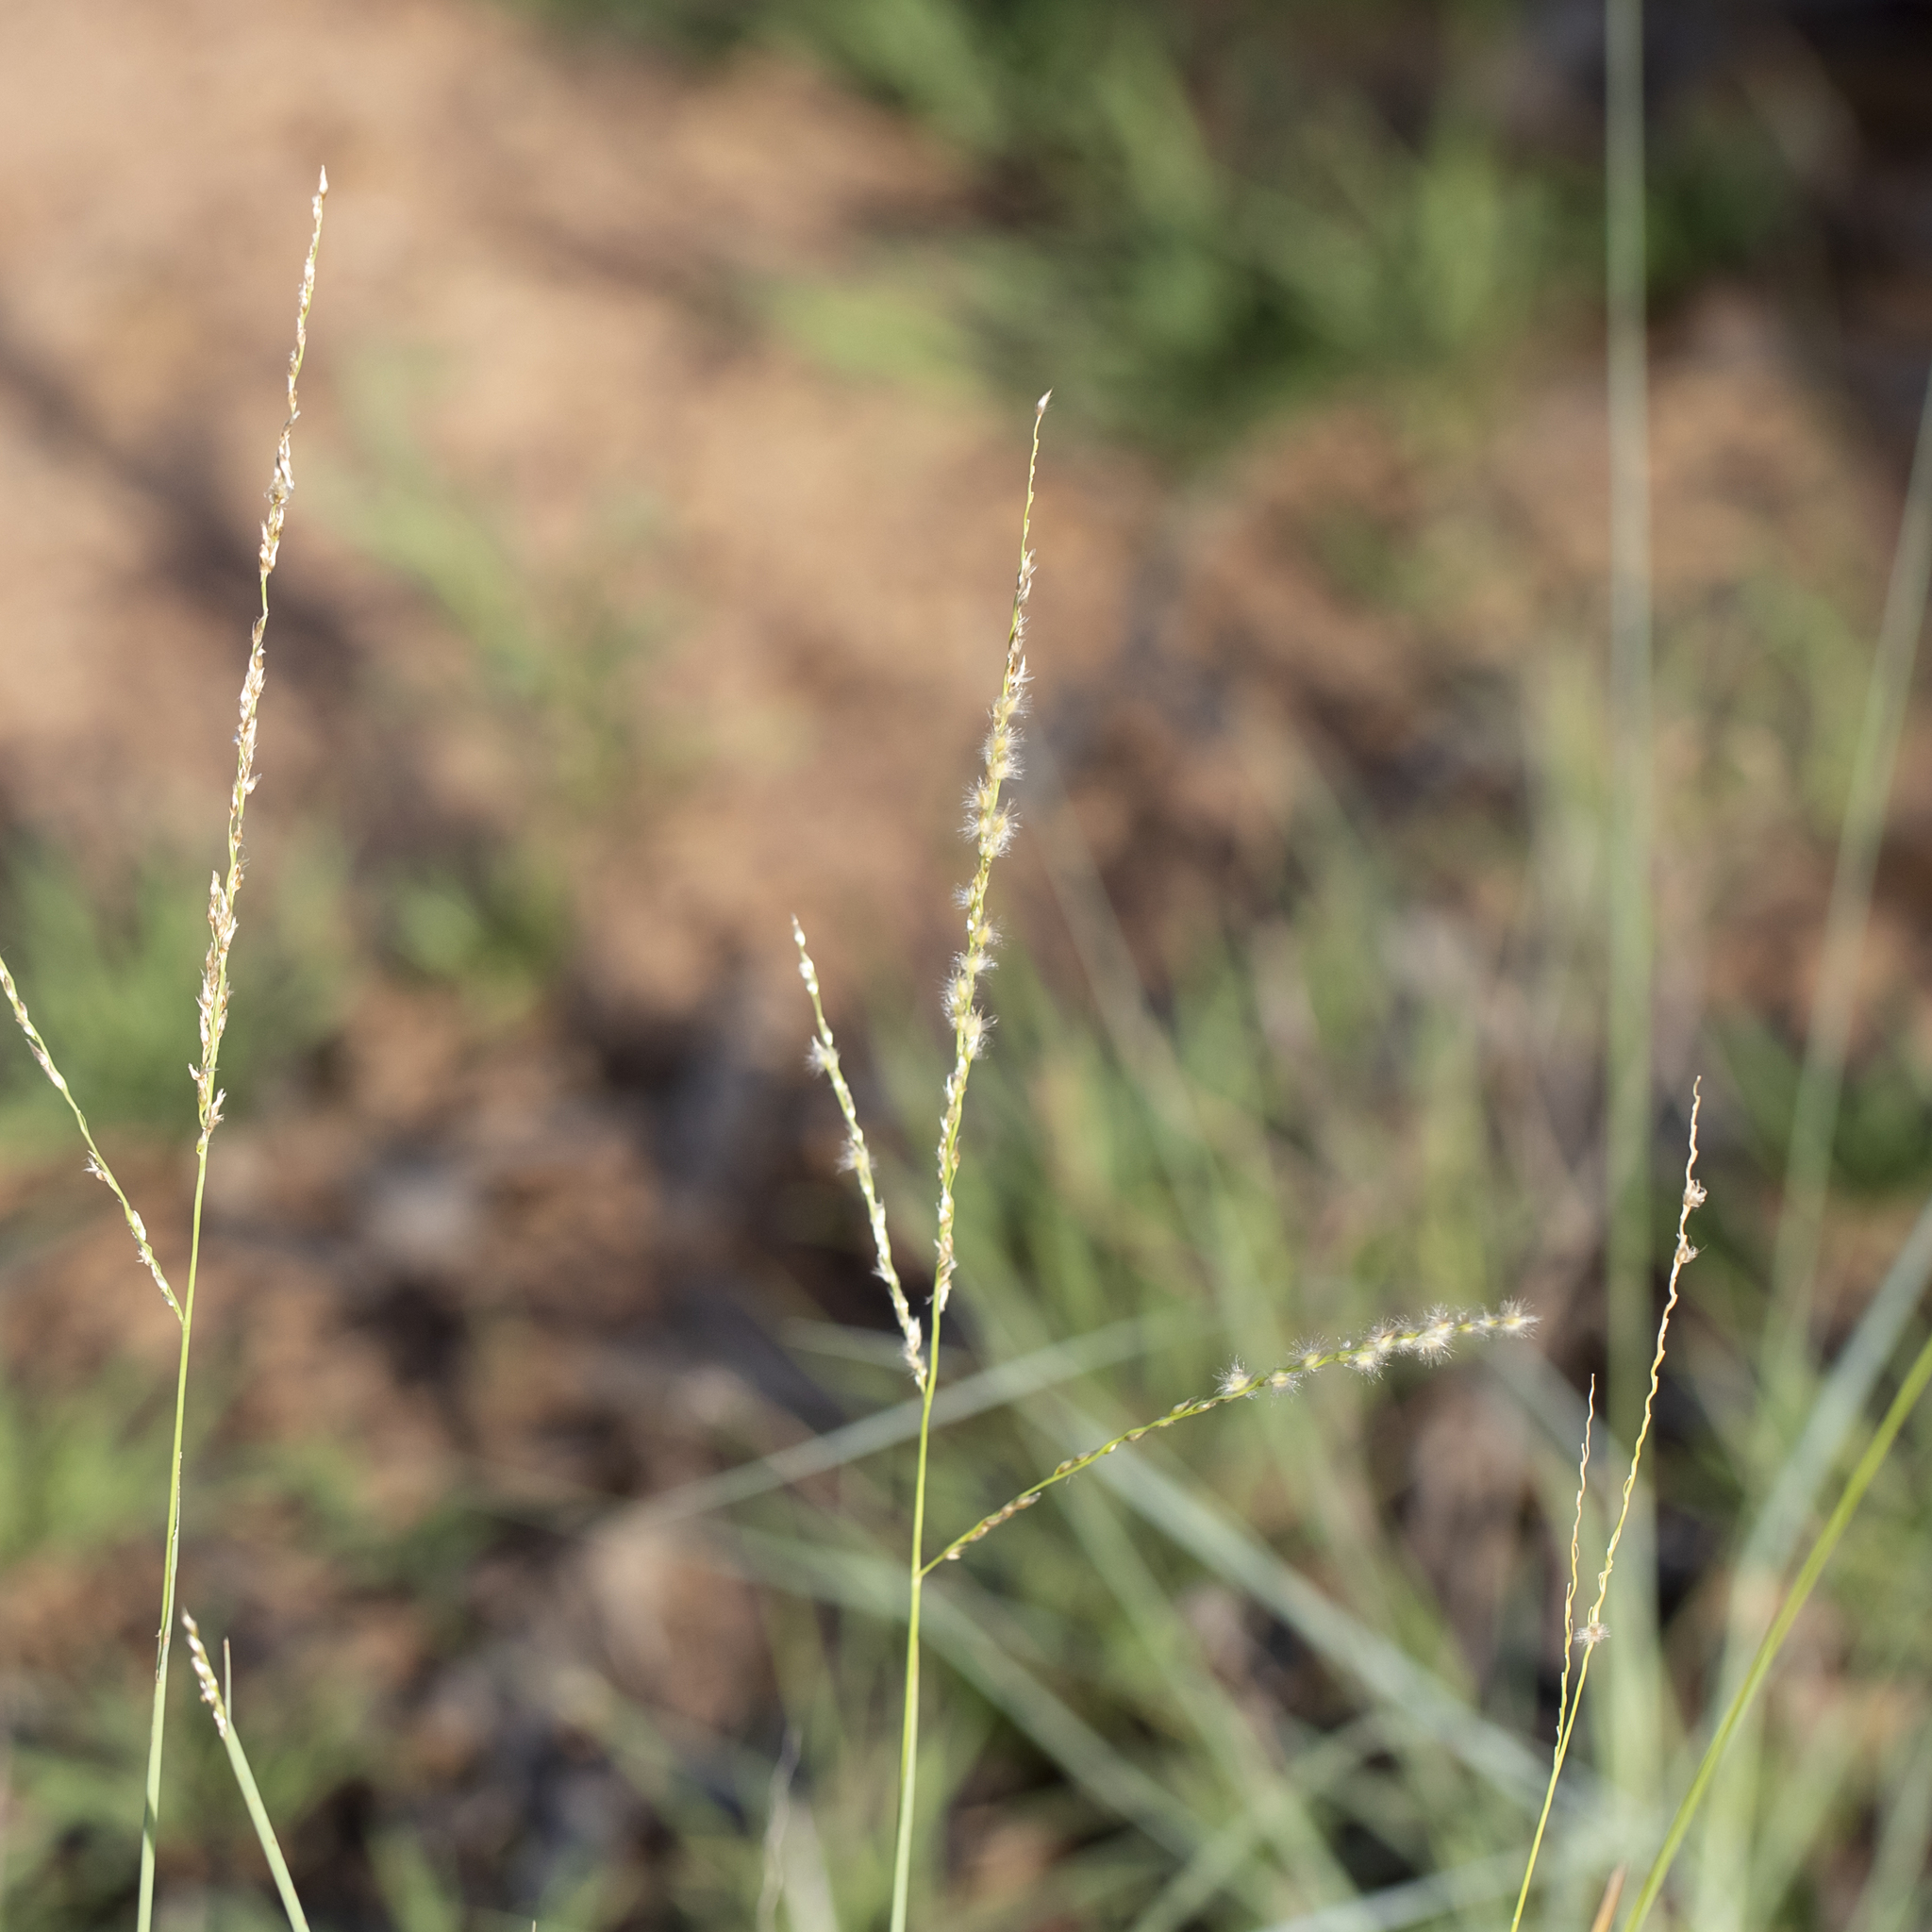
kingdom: Plantae
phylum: Tracheophyta
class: Liliopsida
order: Poales
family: Poaceae
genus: Digitaria
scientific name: Digitaria brownii
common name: Cotton grass
